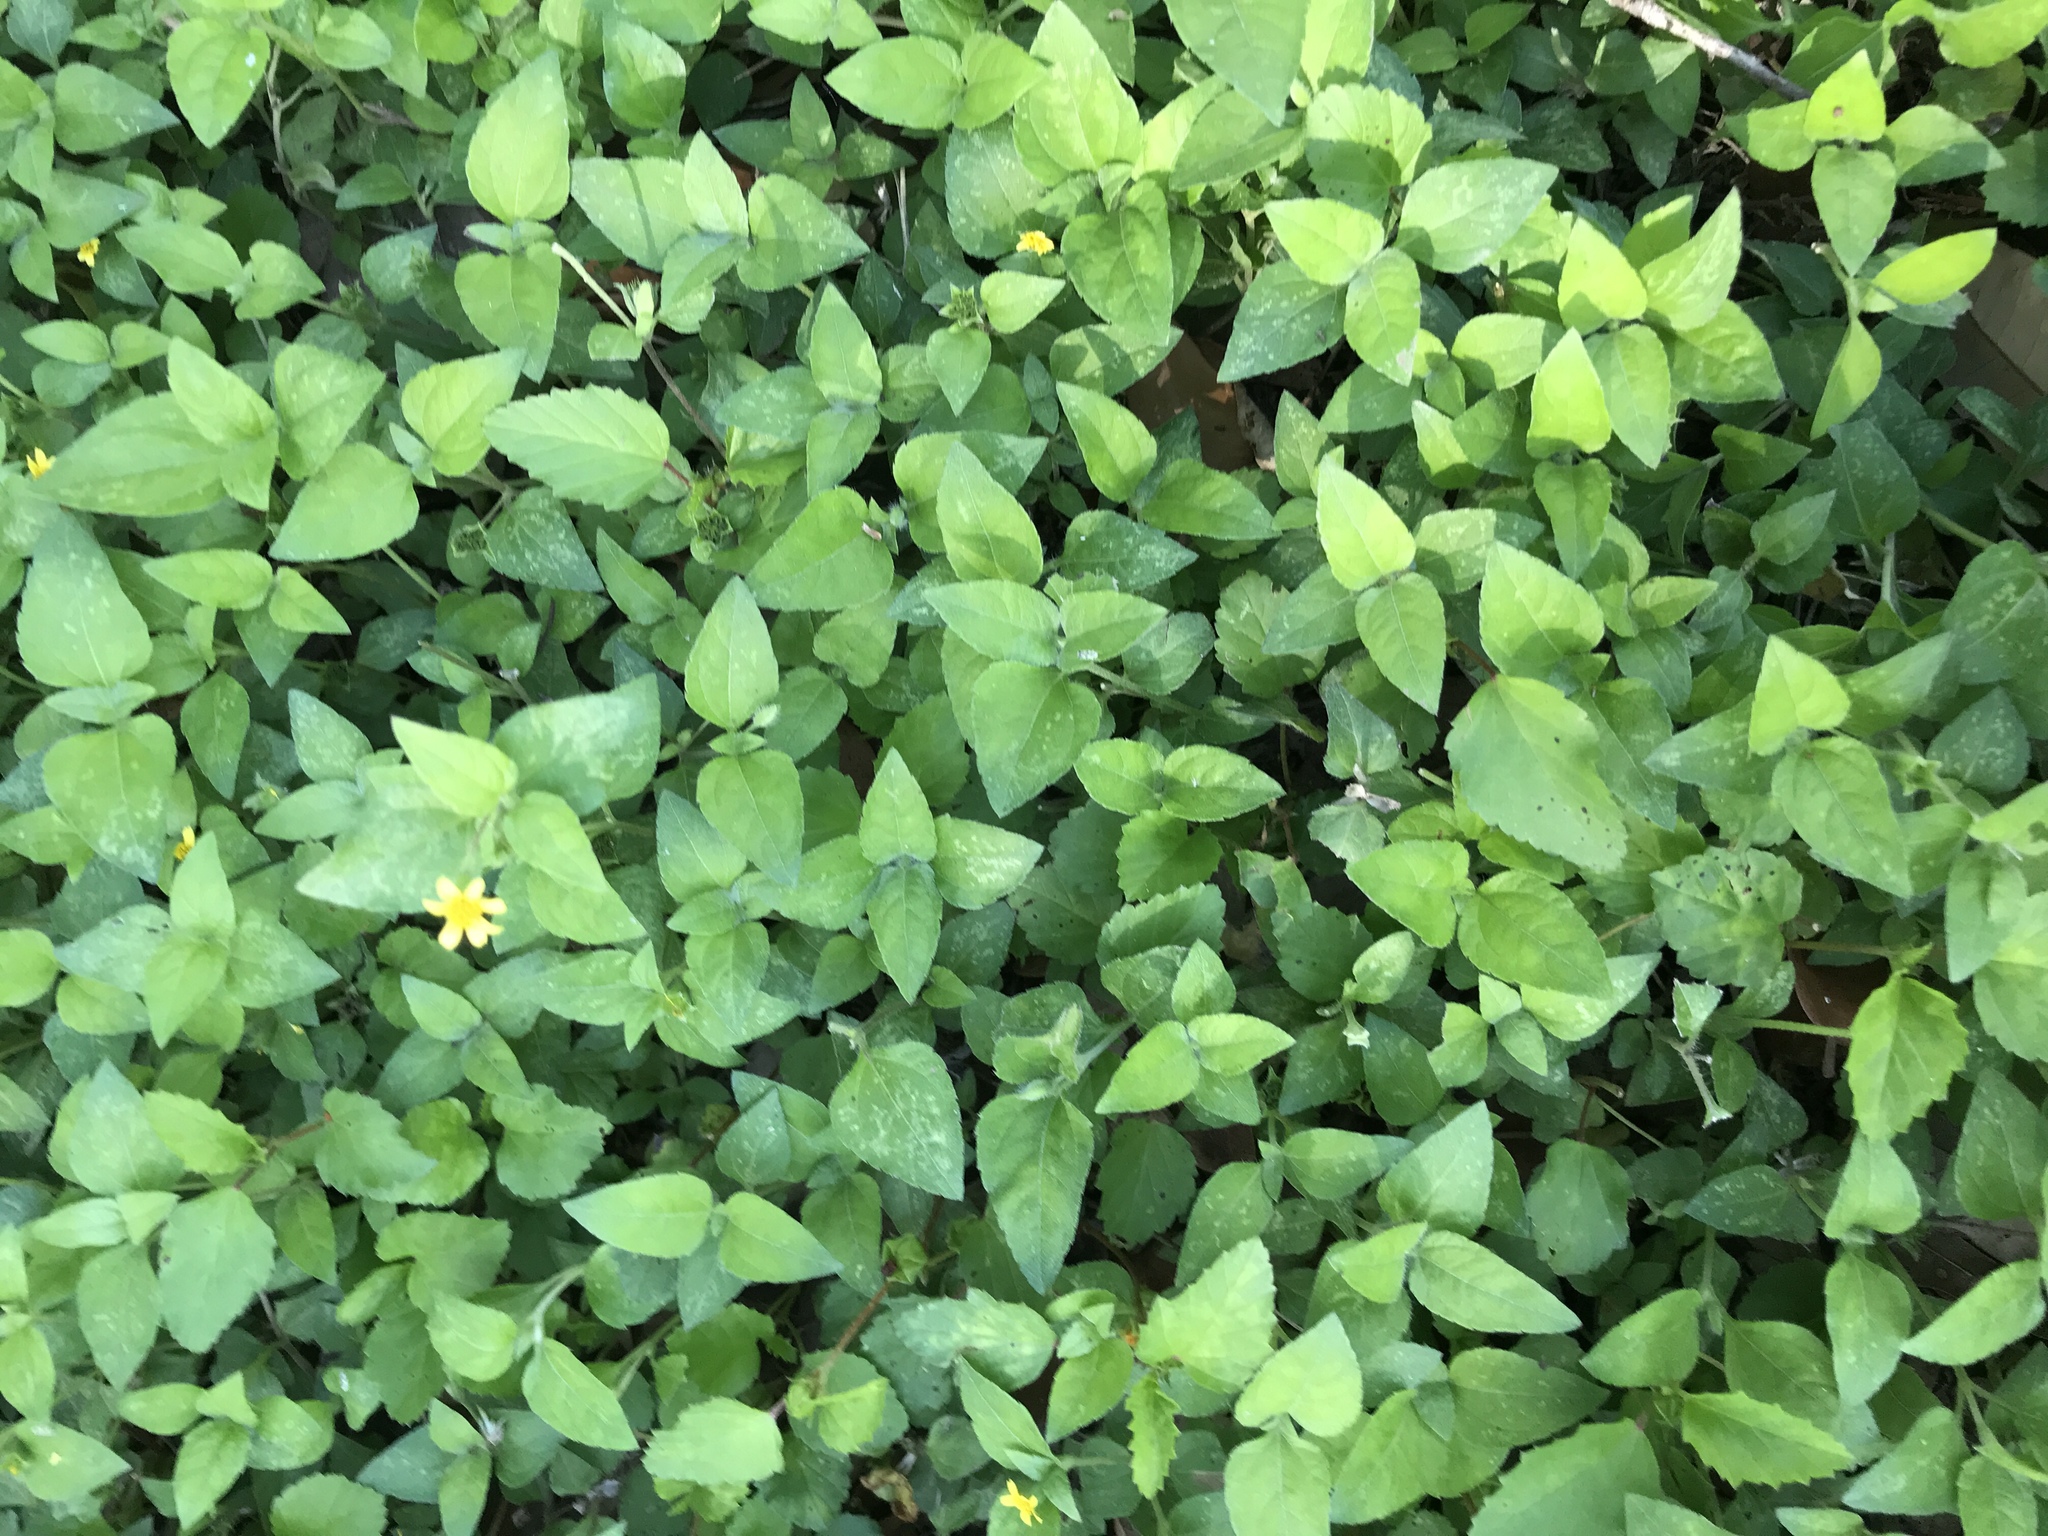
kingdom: Plantae
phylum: Tracheophyta
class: Magnoliopsida
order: Asterales
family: Asteraceae
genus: Calyptocarpus
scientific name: Calyptocarpus vialis
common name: Straggler daisy
